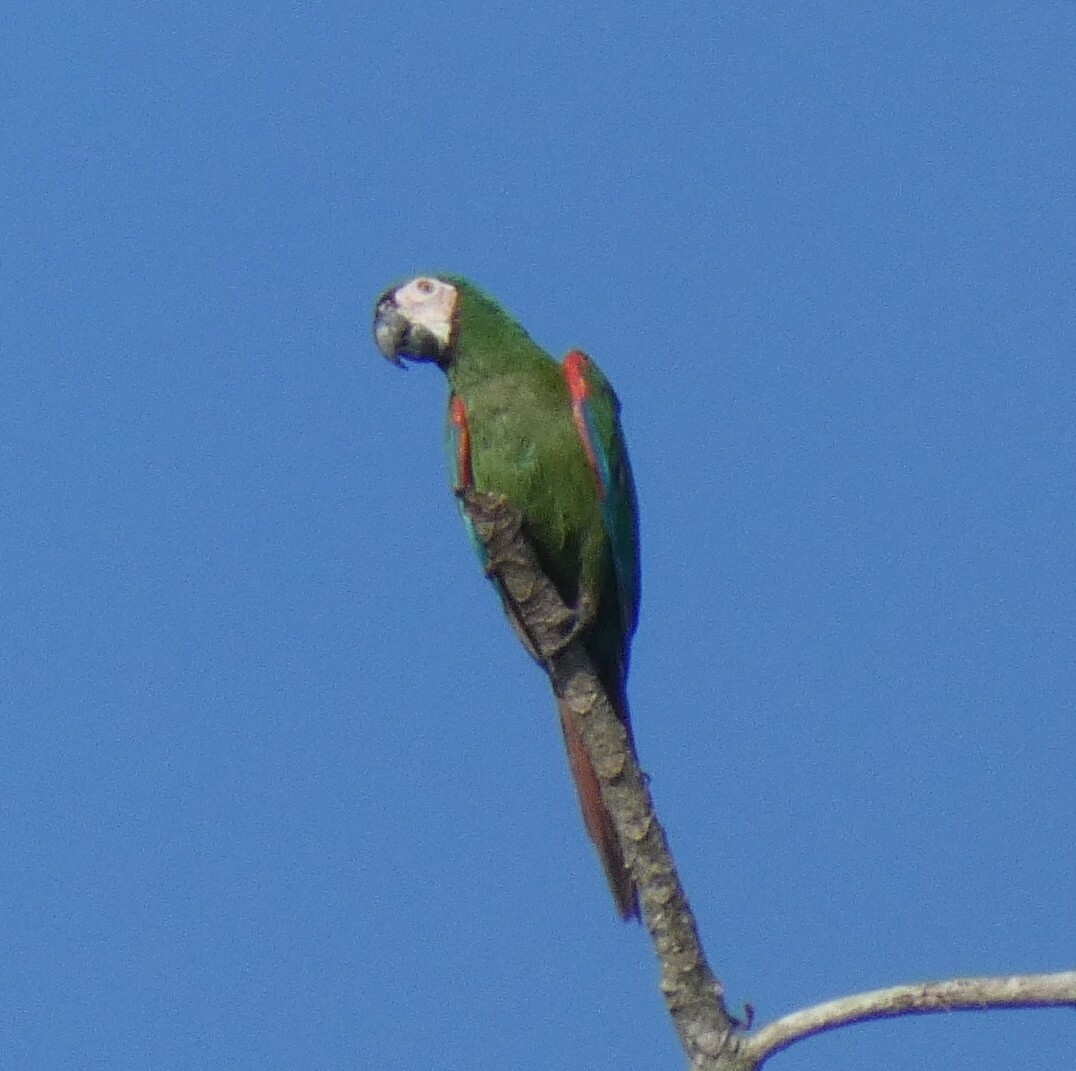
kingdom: Animalia
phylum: Chordata
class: Aves
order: Psittaciformes
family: Psittacidae
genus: Ara
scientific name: Ara severus
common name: Chestnut-fronted macaw
